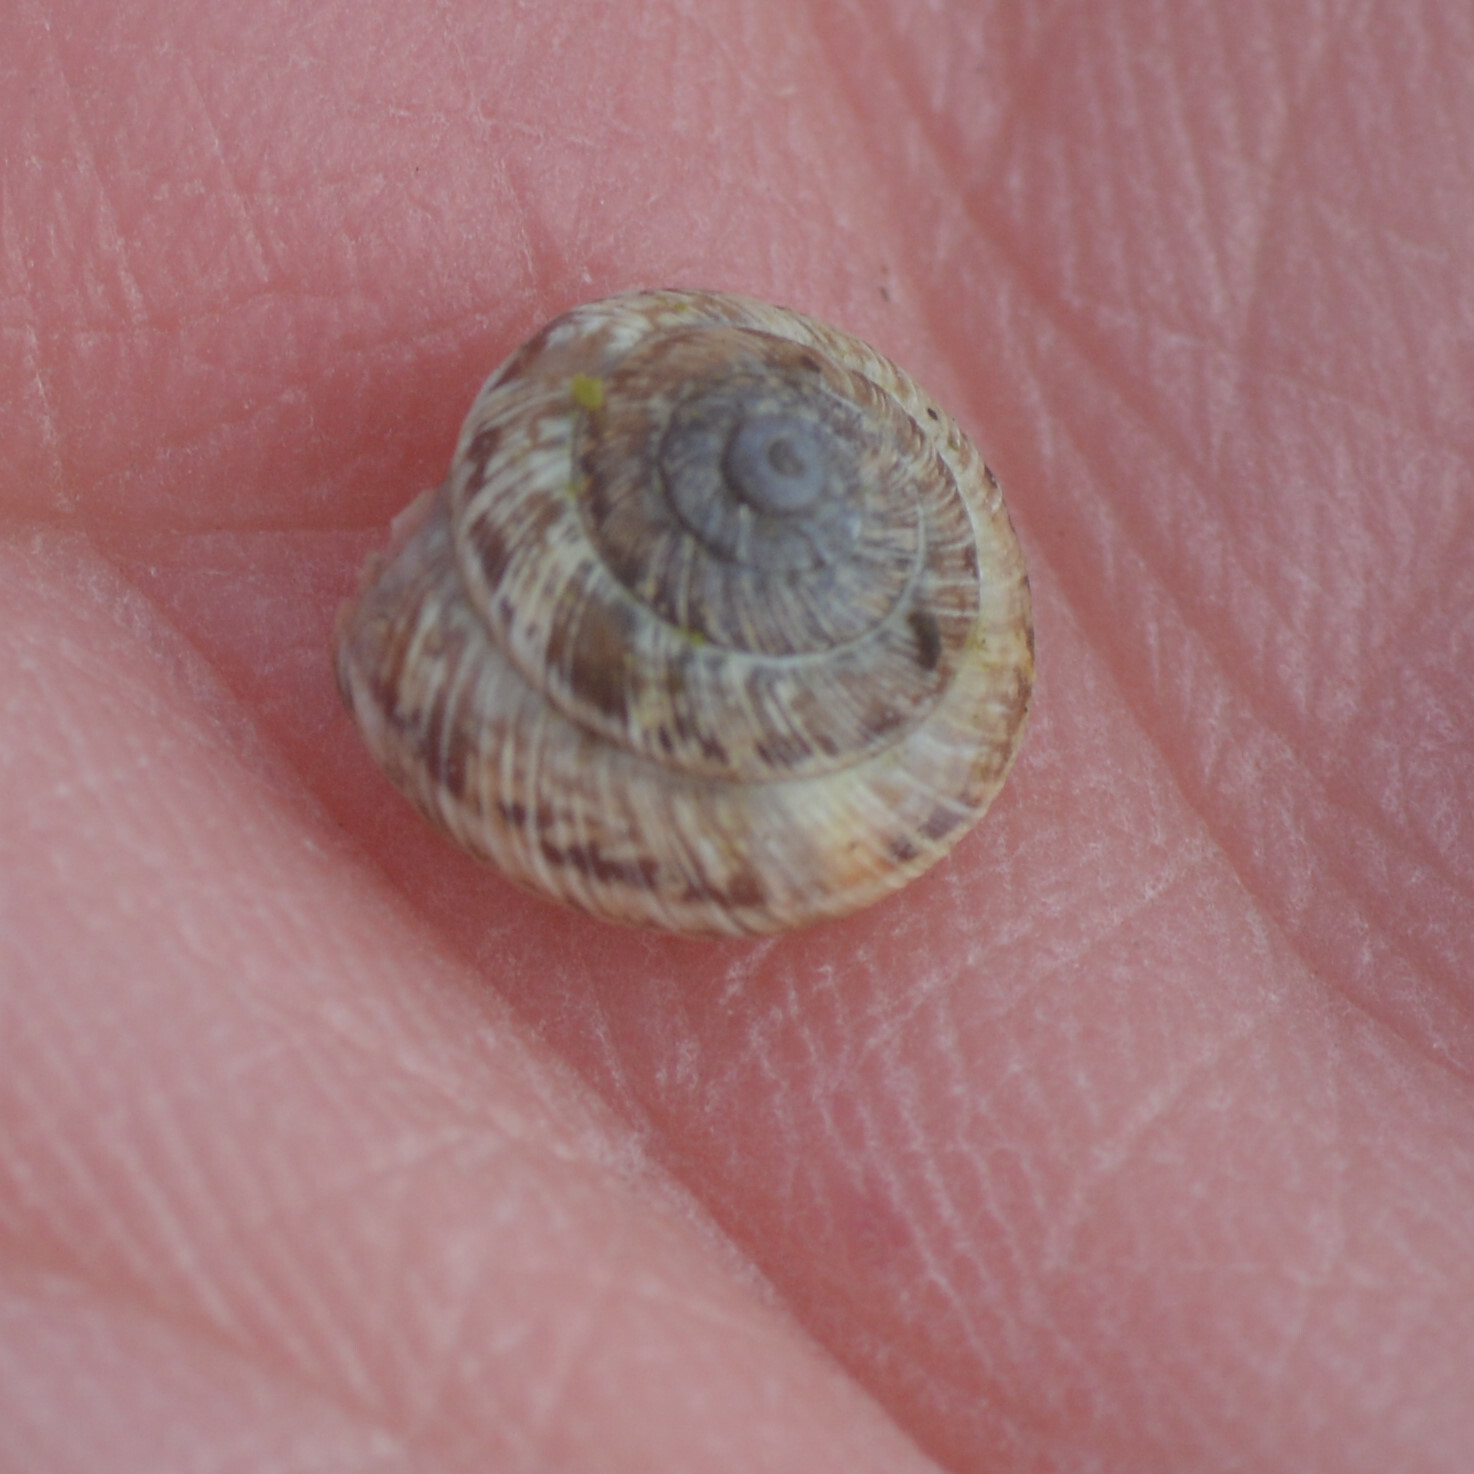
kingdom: Animalia
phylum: Mollusca
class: Gastropoda
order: Stylommatophora
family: Geomitridae
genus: Xeroplexa
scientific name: Xeroplexa intersecta
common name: Wrinkled snail
